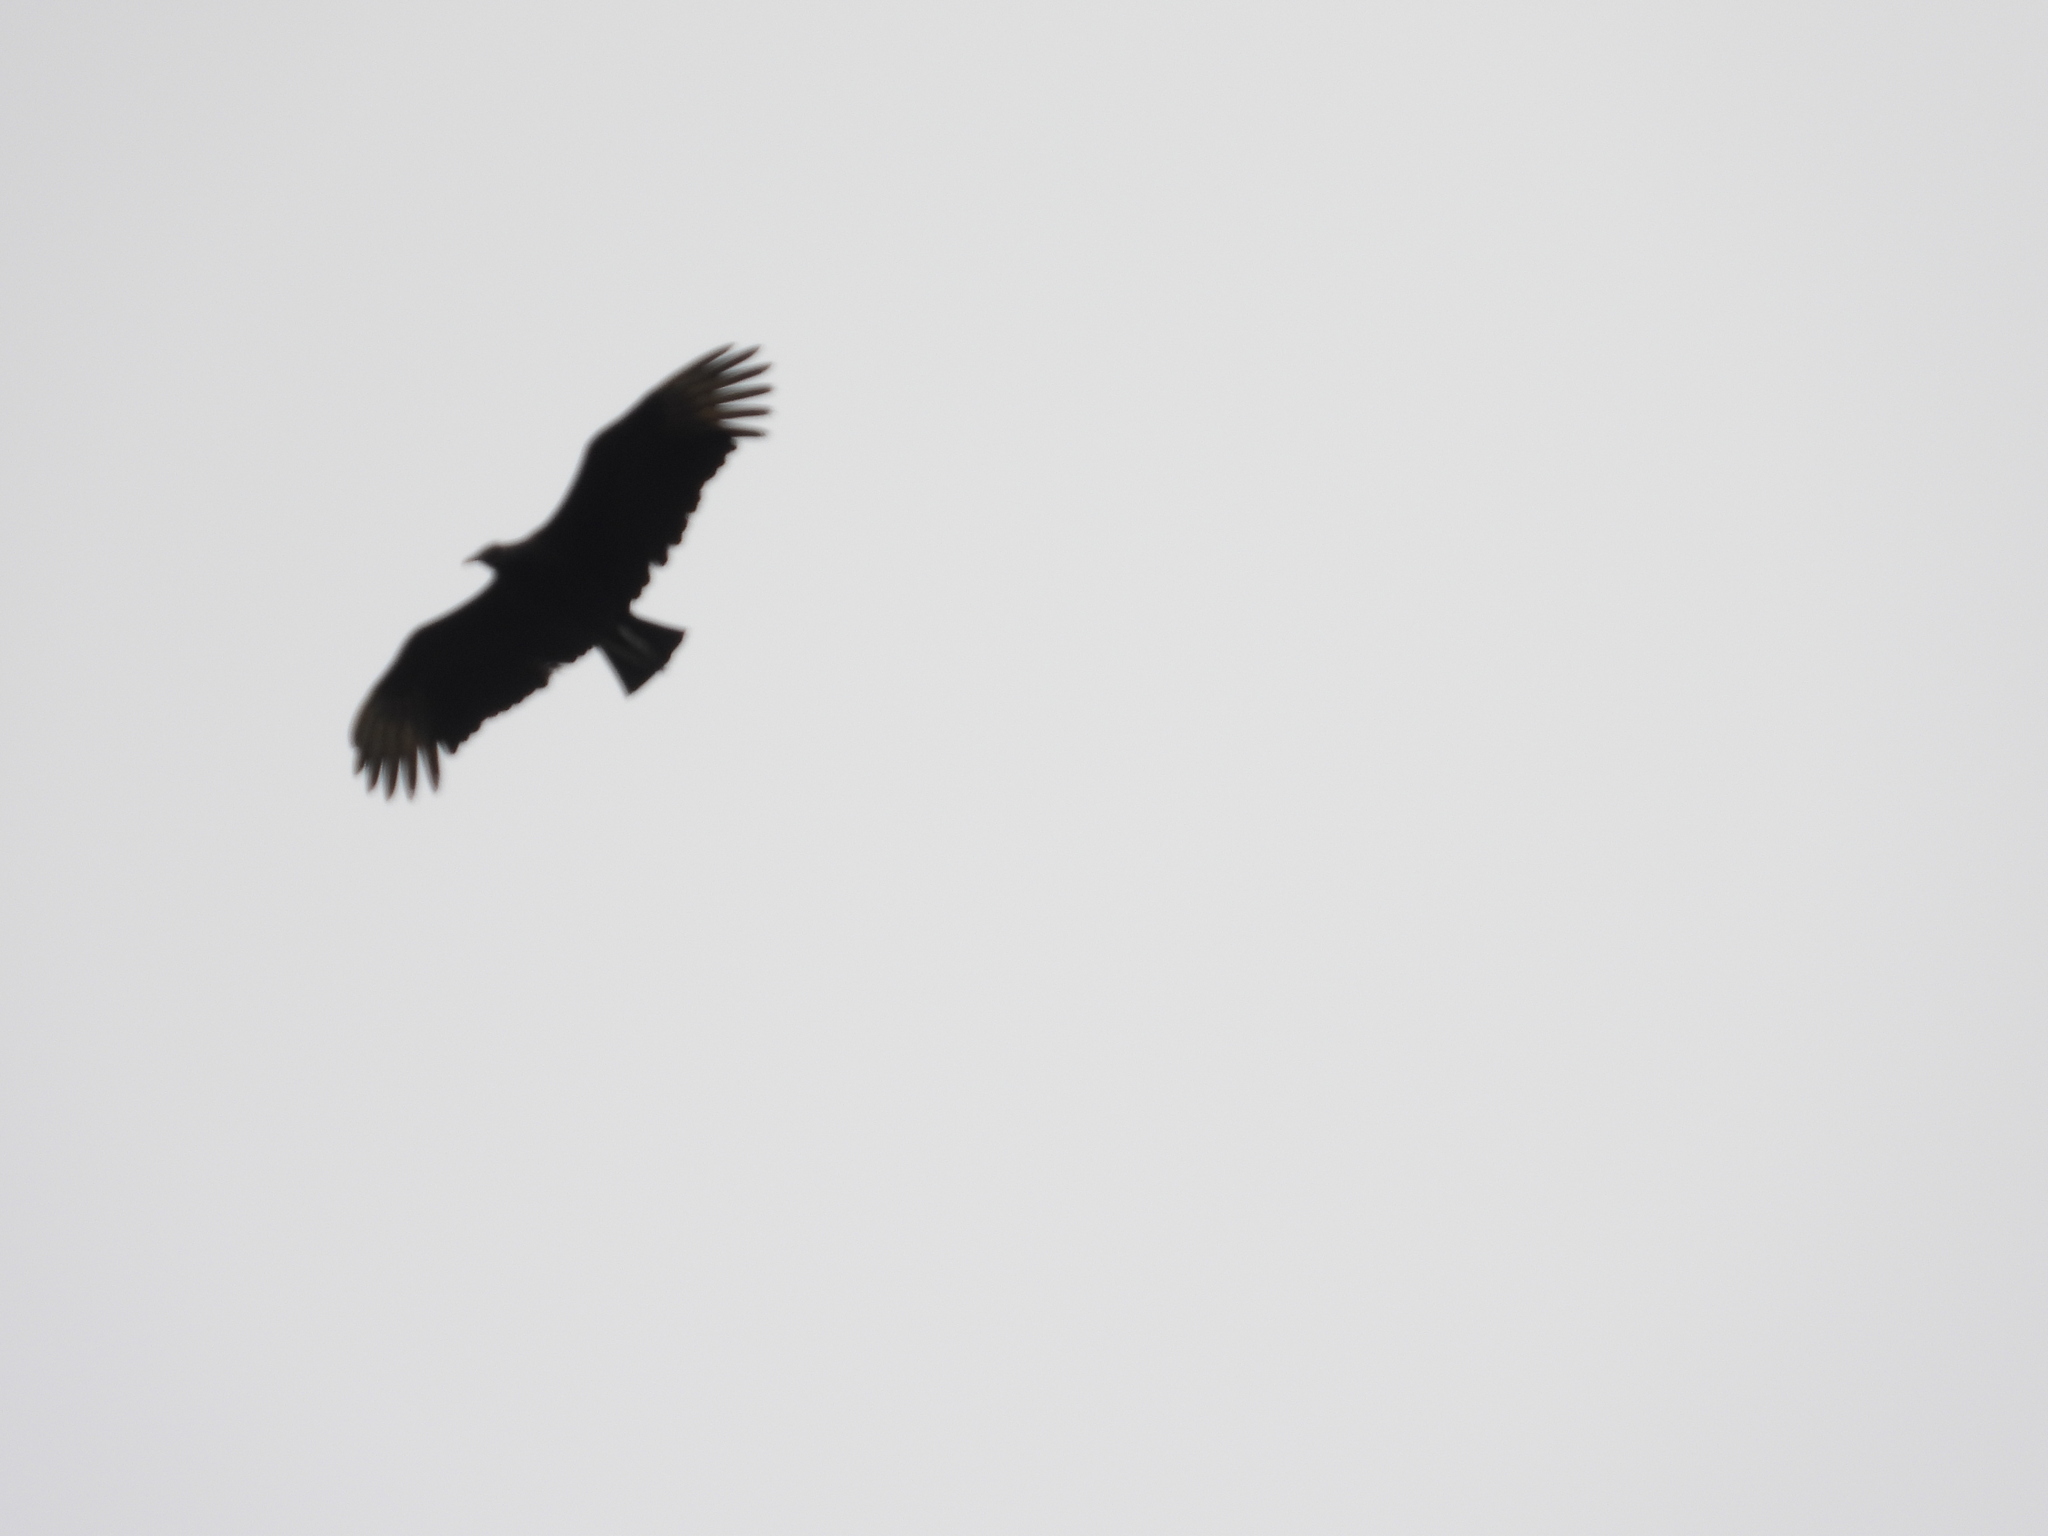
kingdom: Animalia
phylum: Chordata
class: Aves
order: Accipitriformes
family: Cathartidae
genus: Coragyps
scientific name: Coragyps atratus
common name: Black vulture
